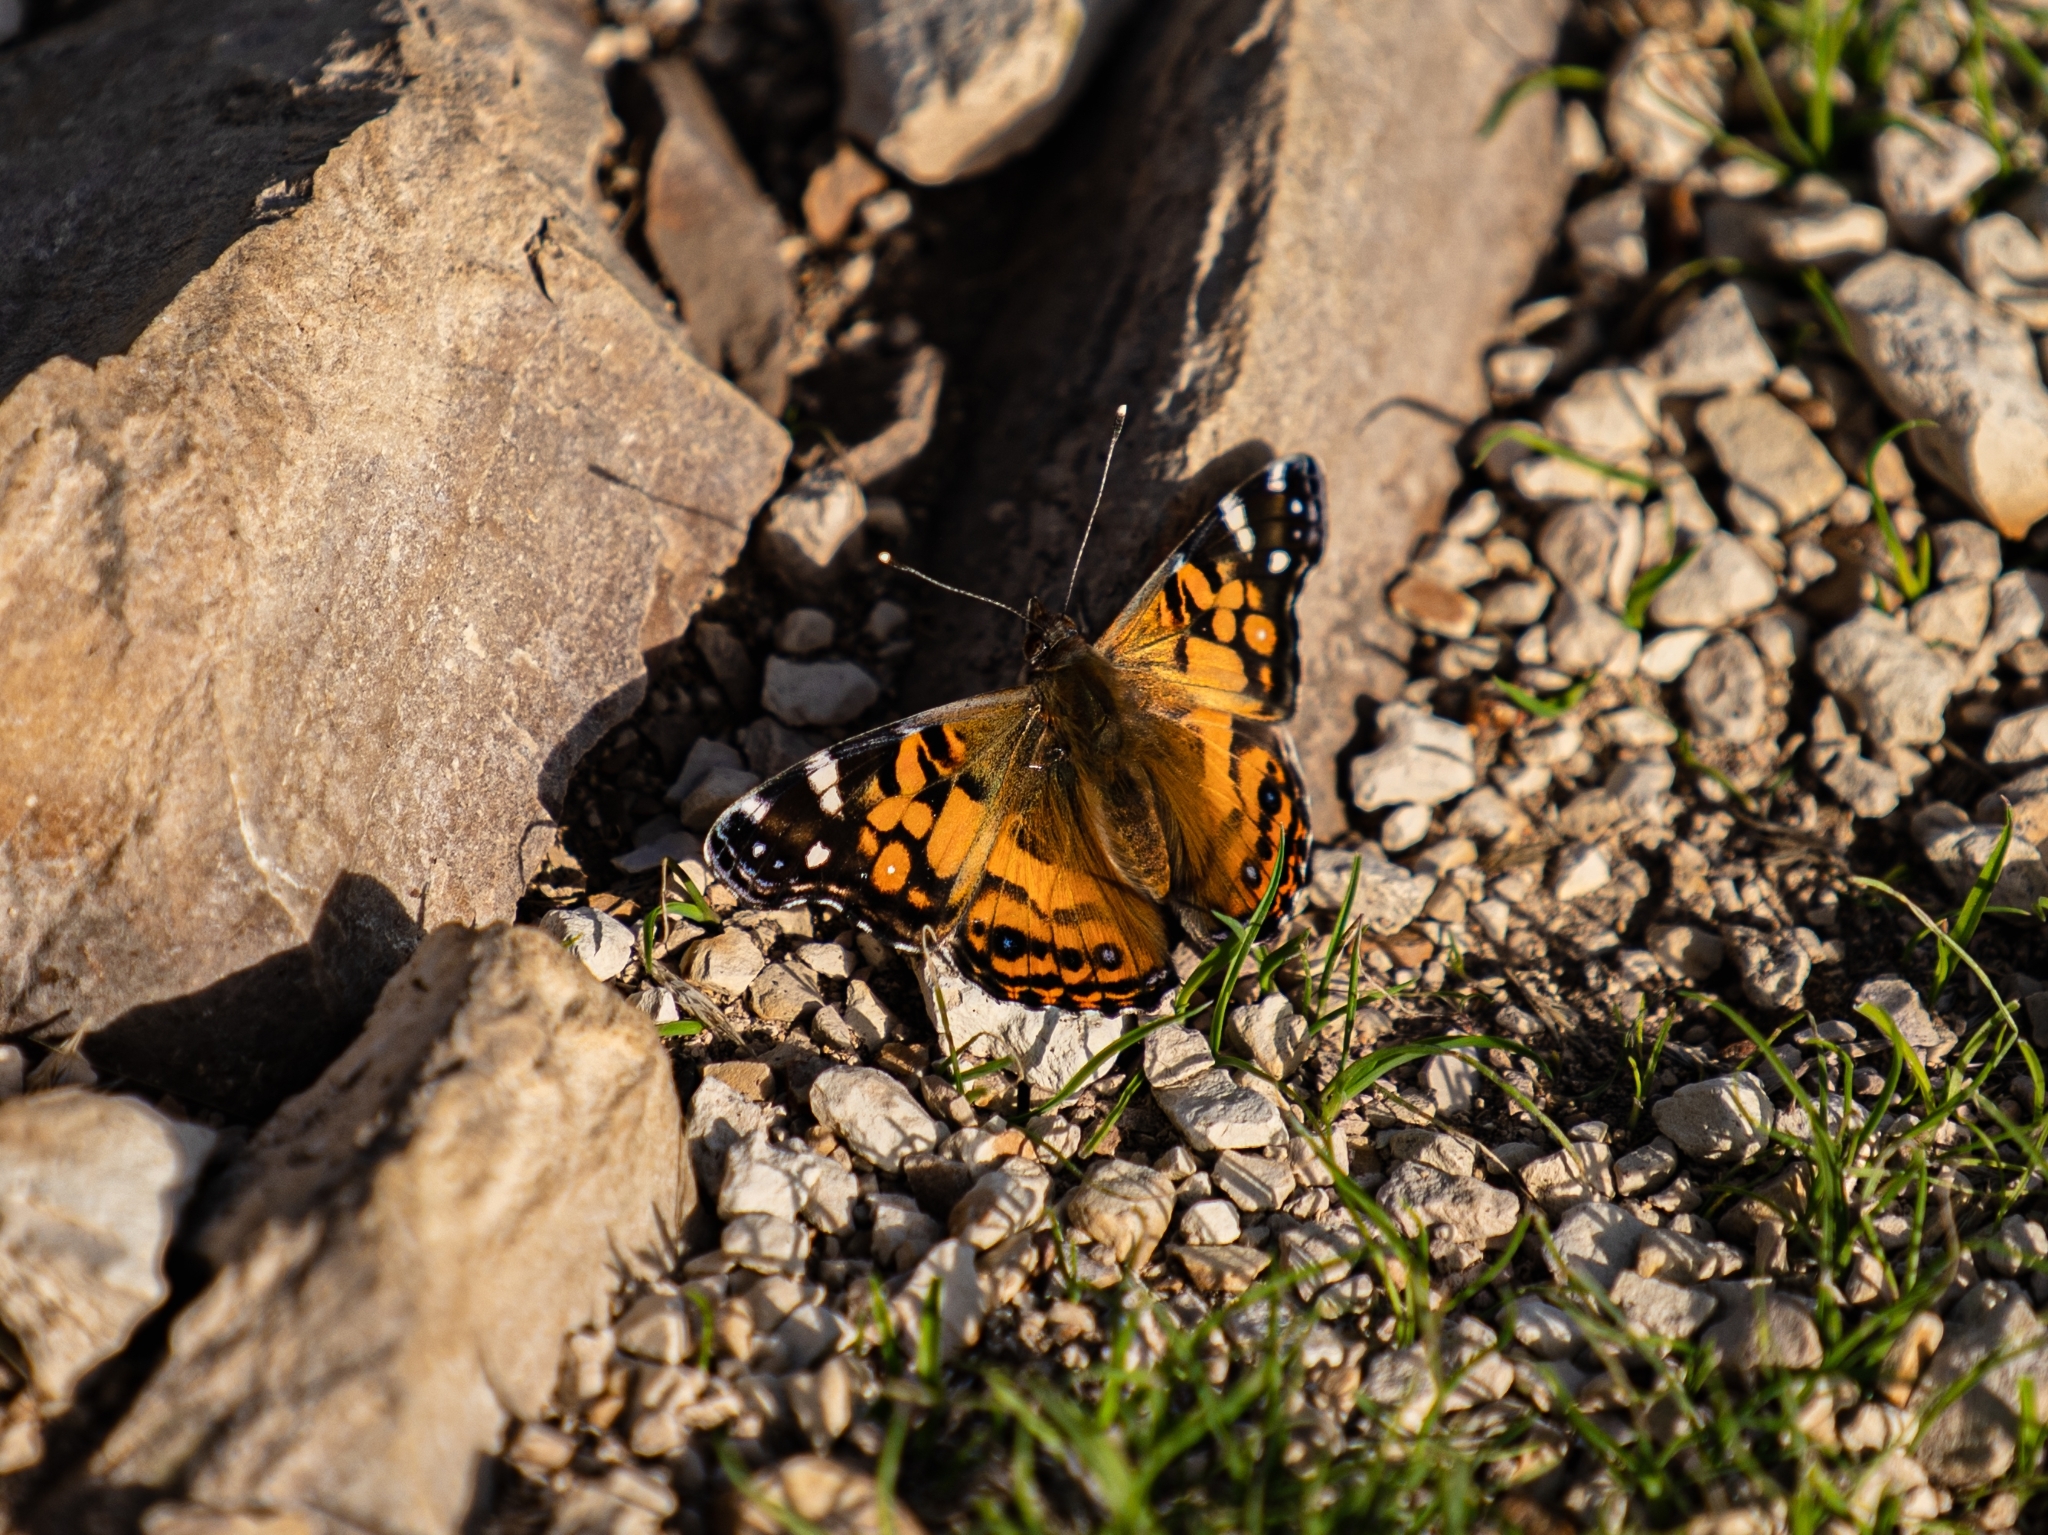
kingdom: Animalia
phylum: Arthropoda
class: Insecta
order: Lepidoptera
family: Nymphalidae
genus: Vanessa
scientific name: Vanessa virginiensis
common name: American lady
